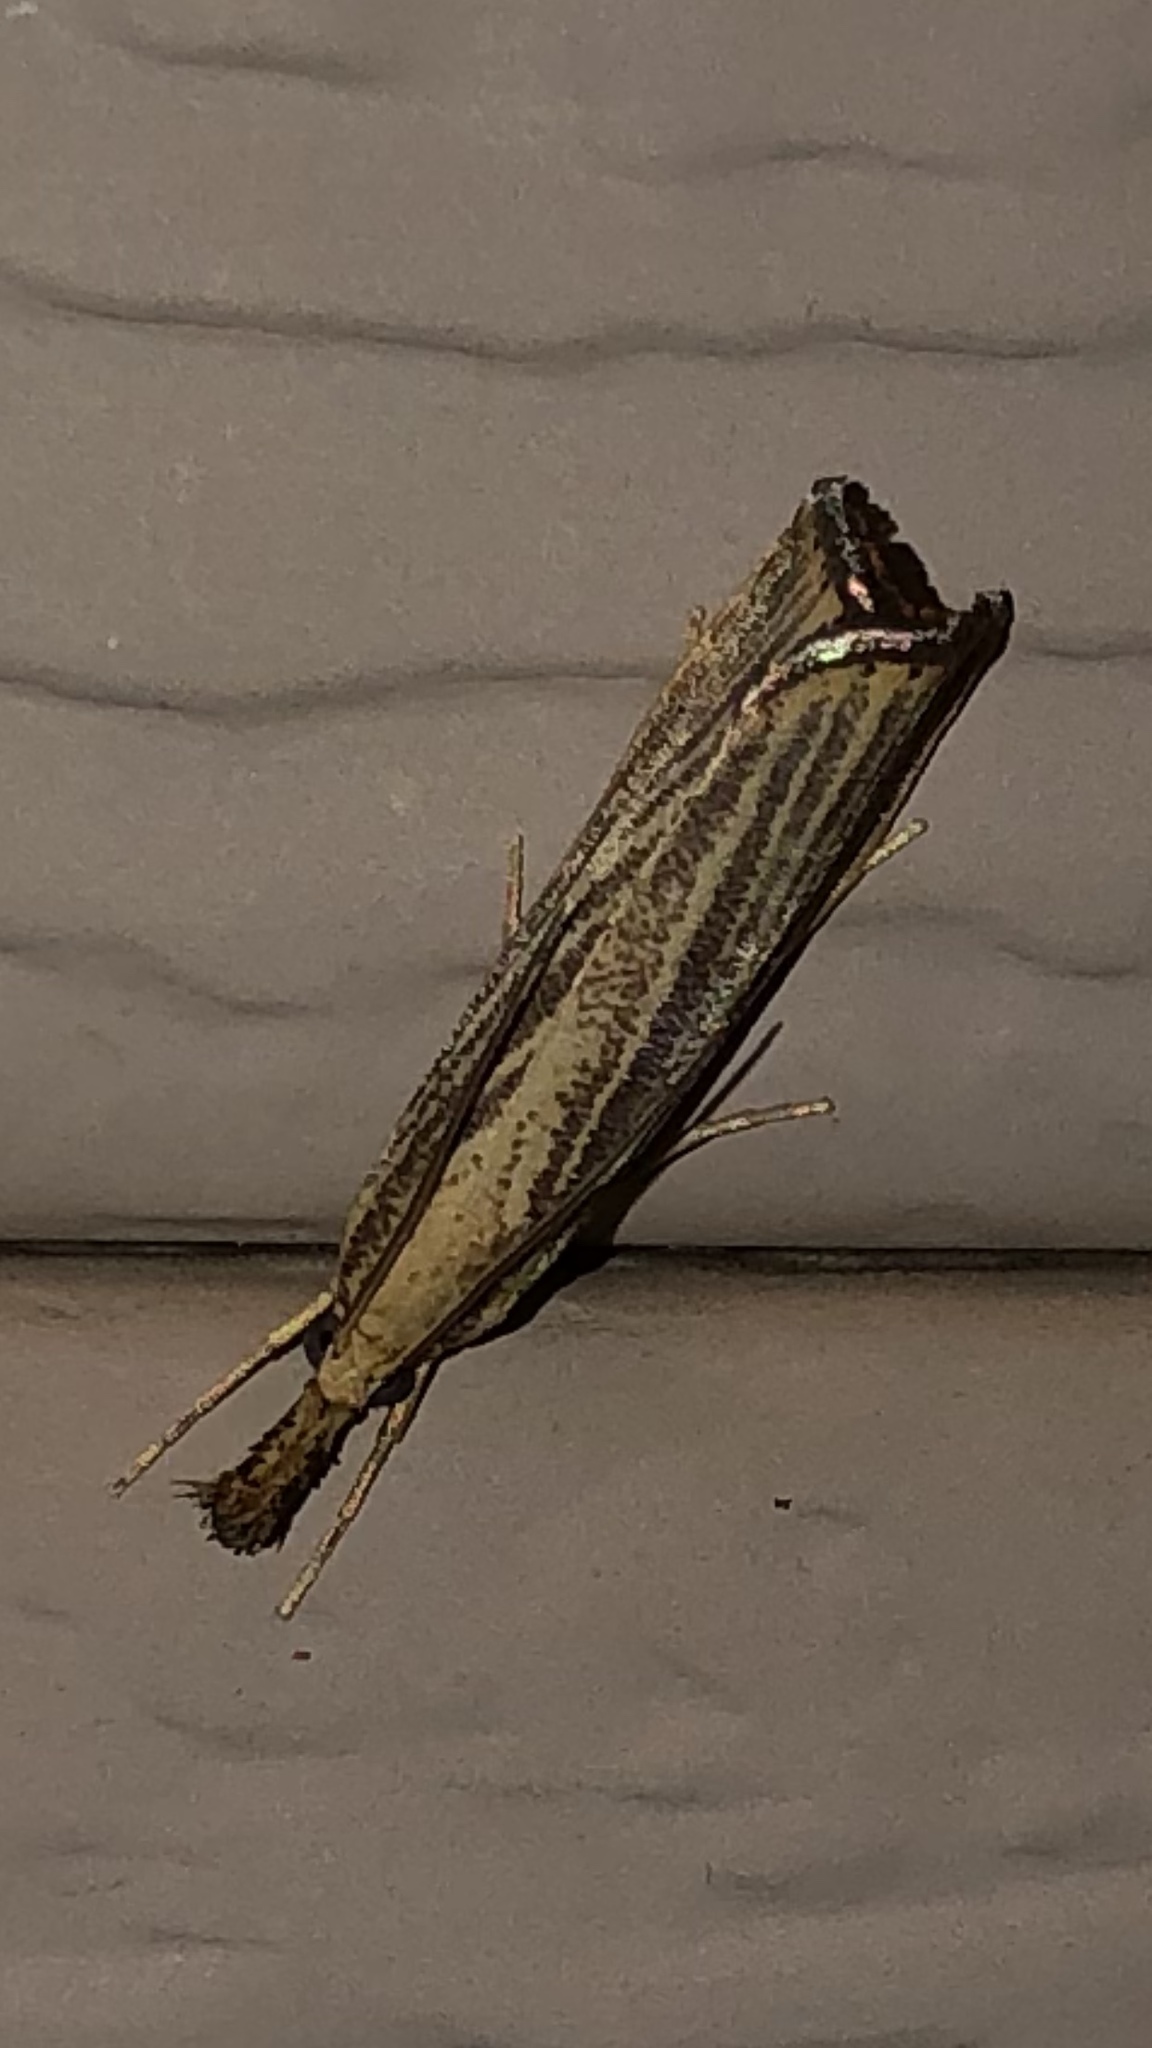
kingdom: Animalia
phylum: Arthropoda
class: Insecta
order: Lepidoptera
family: Crambidae
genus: Agriphila
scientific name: Agriphila vulgivagellus
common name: Vagabond crambus moth
